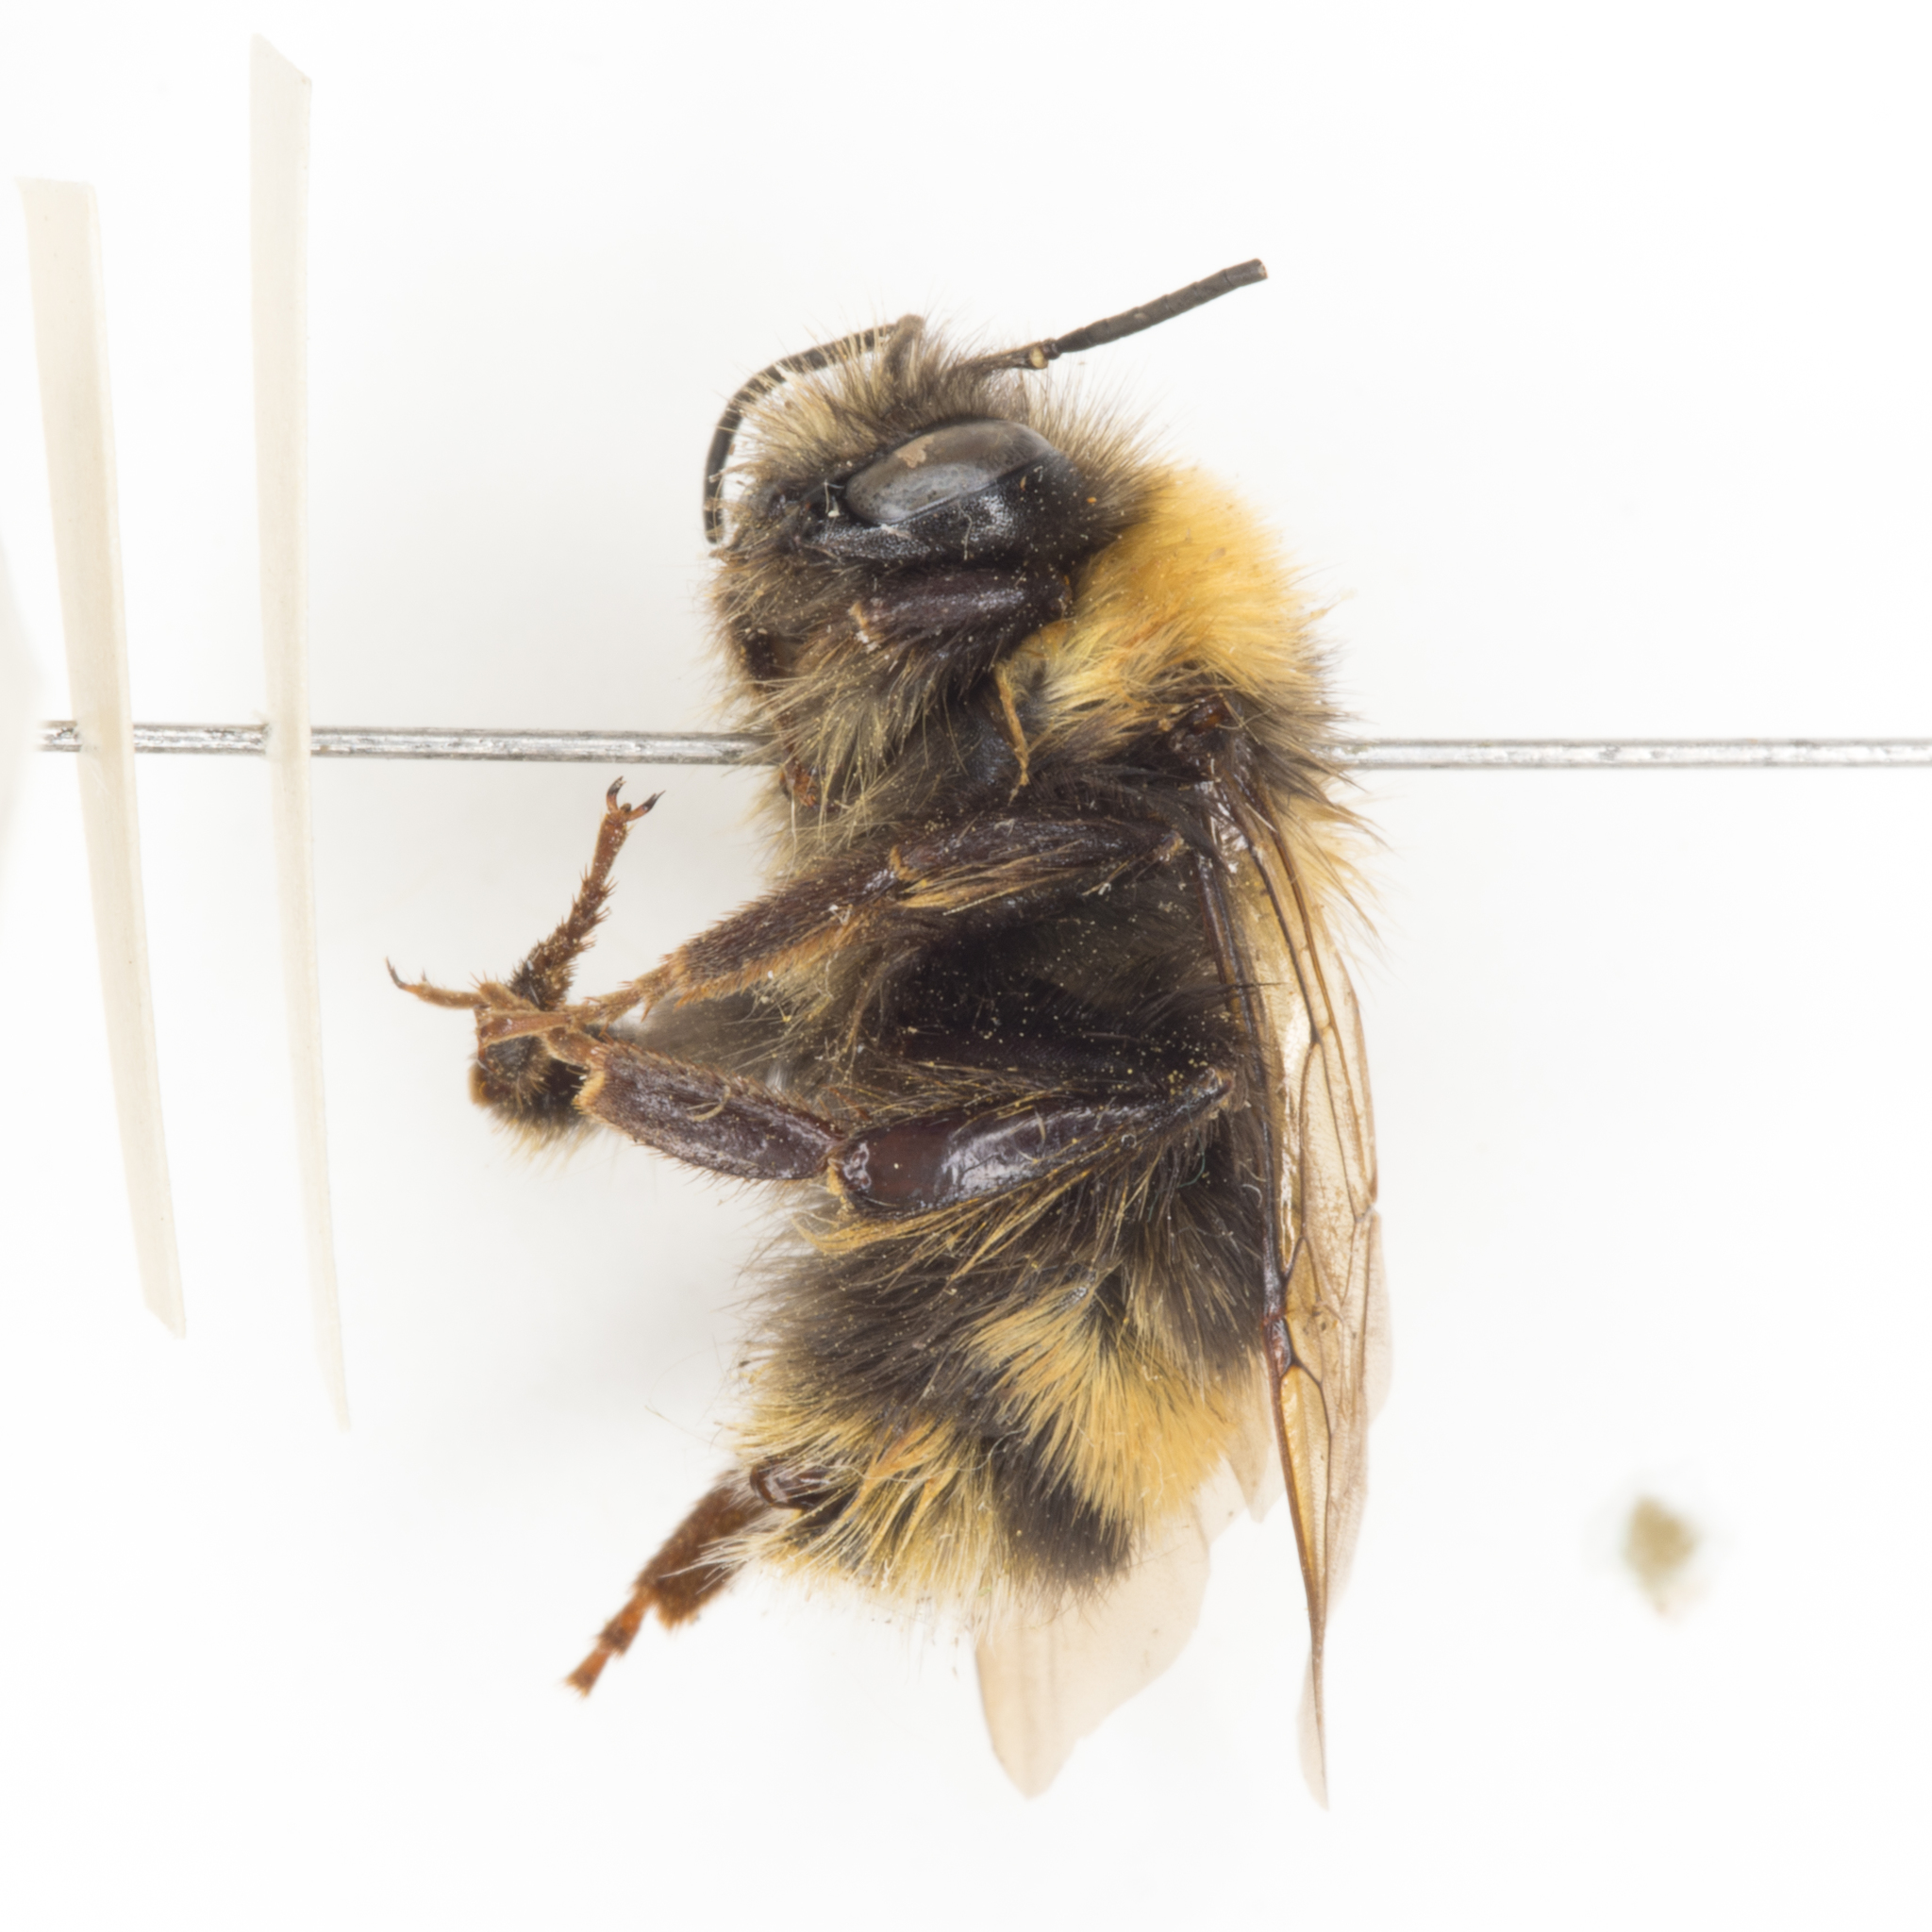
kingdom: Animalia
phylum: Arthropoda
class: Insecta
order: Hymenoptera
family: Apidae
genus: Bombus
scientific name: Bombus occidentalis
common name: Western bumble bee
